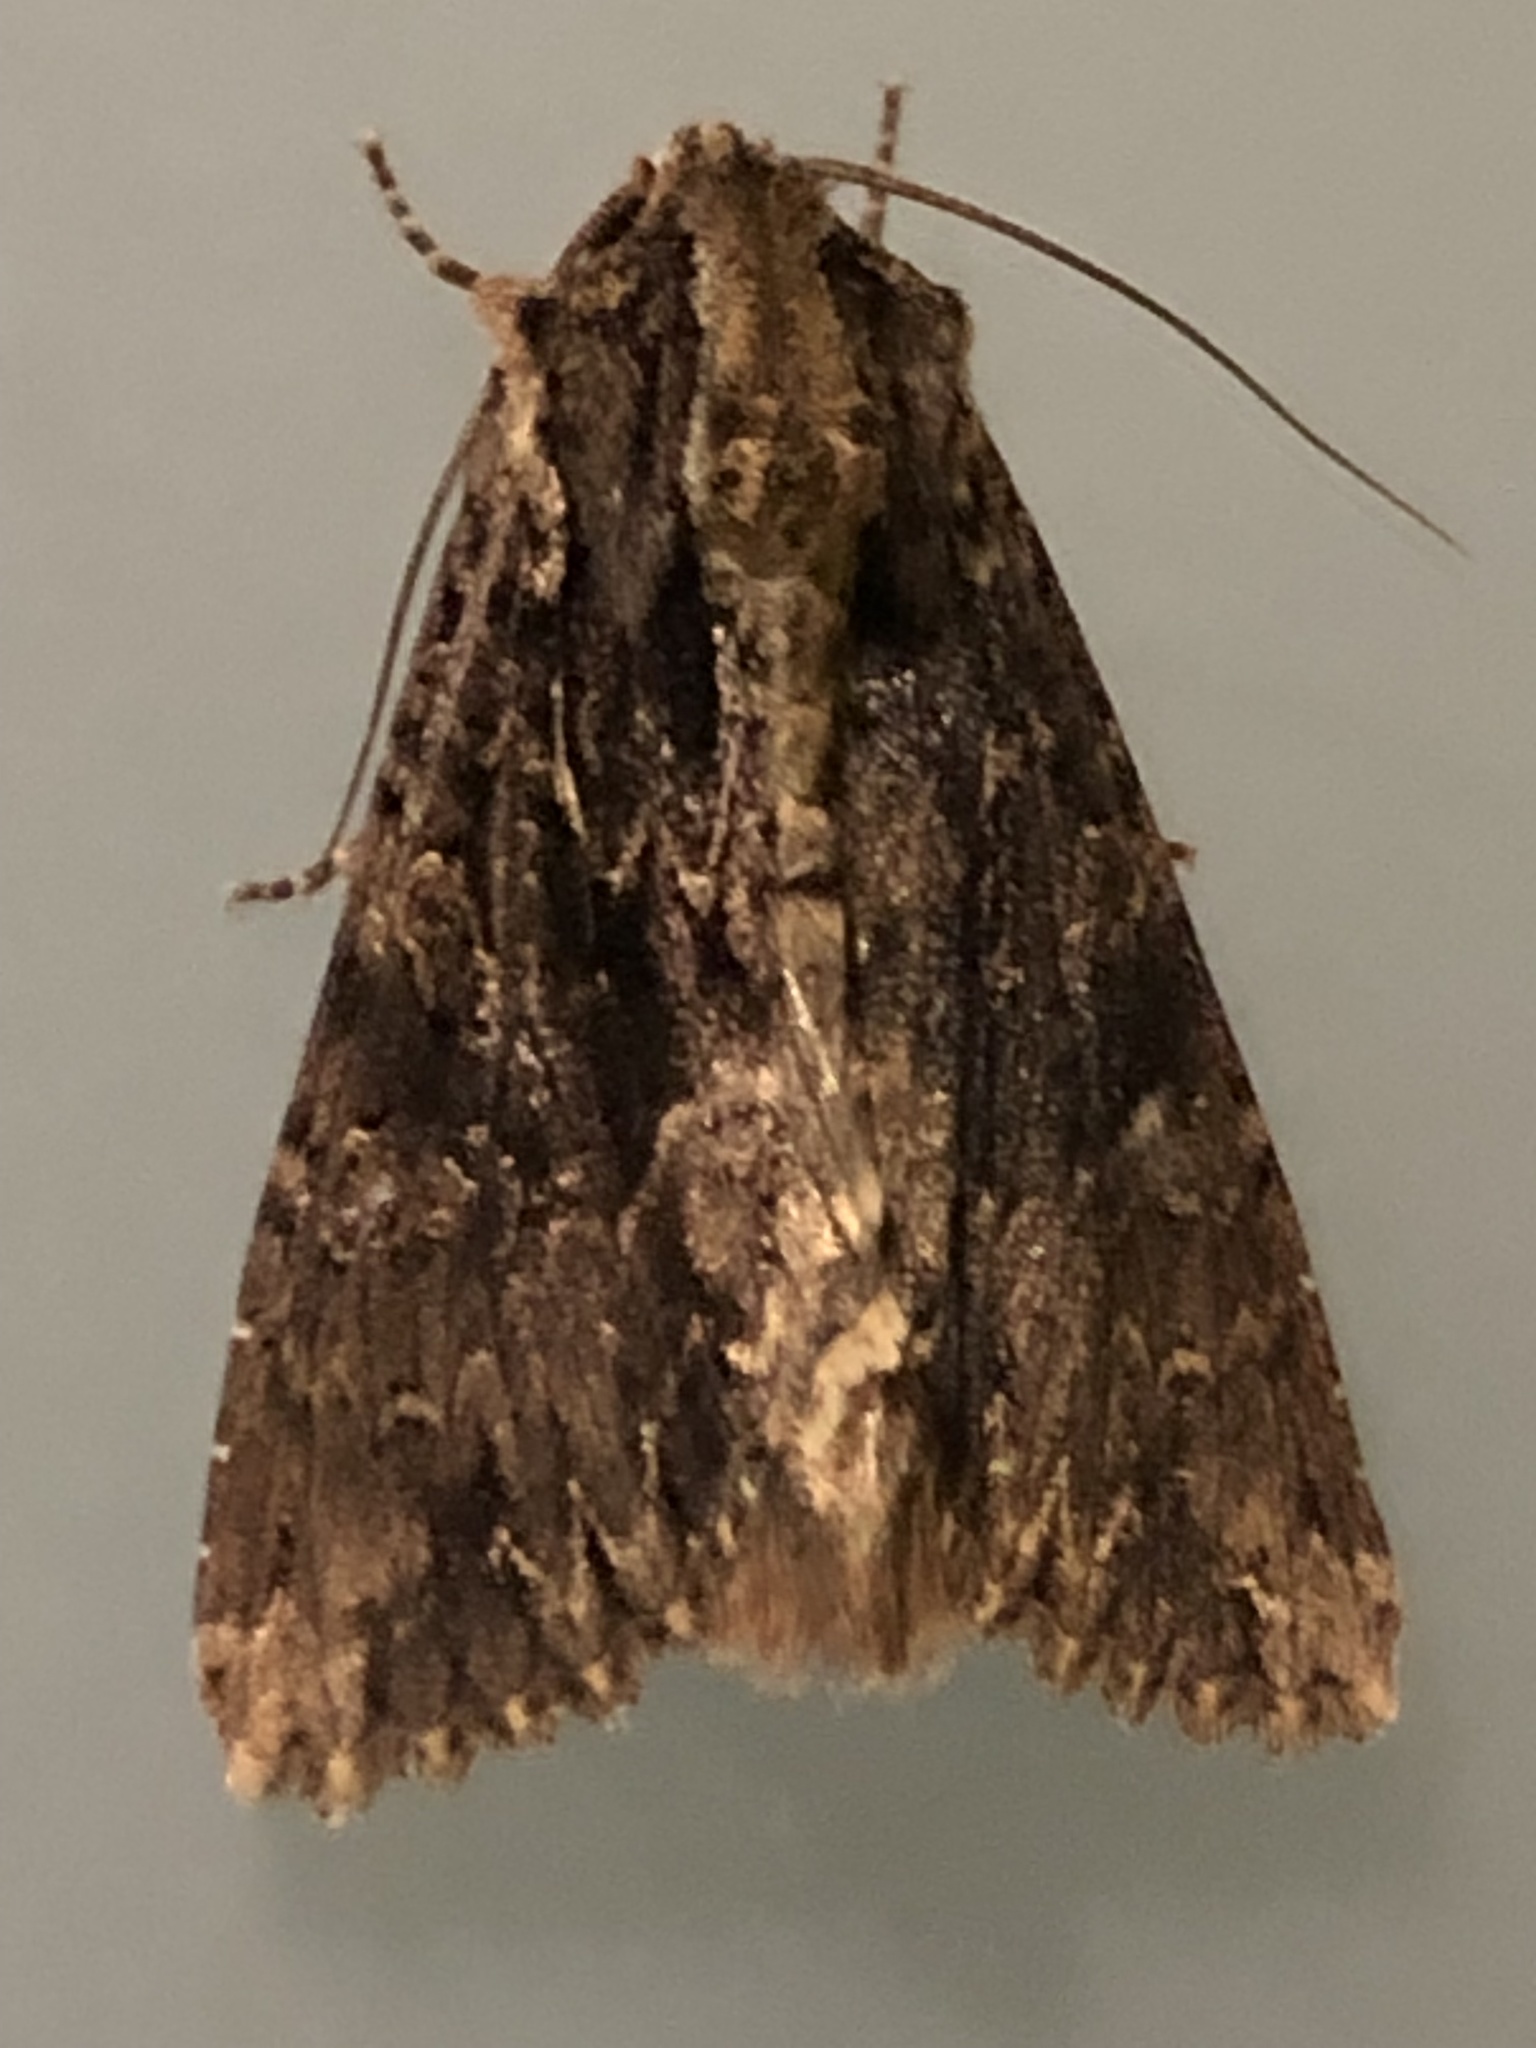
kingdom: Animalia
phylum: Arthropoda
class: Insecta
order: Lepidoptera
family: Noctuidae
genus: Apamea
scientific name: Apamea monoglypha
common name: Dark arches
